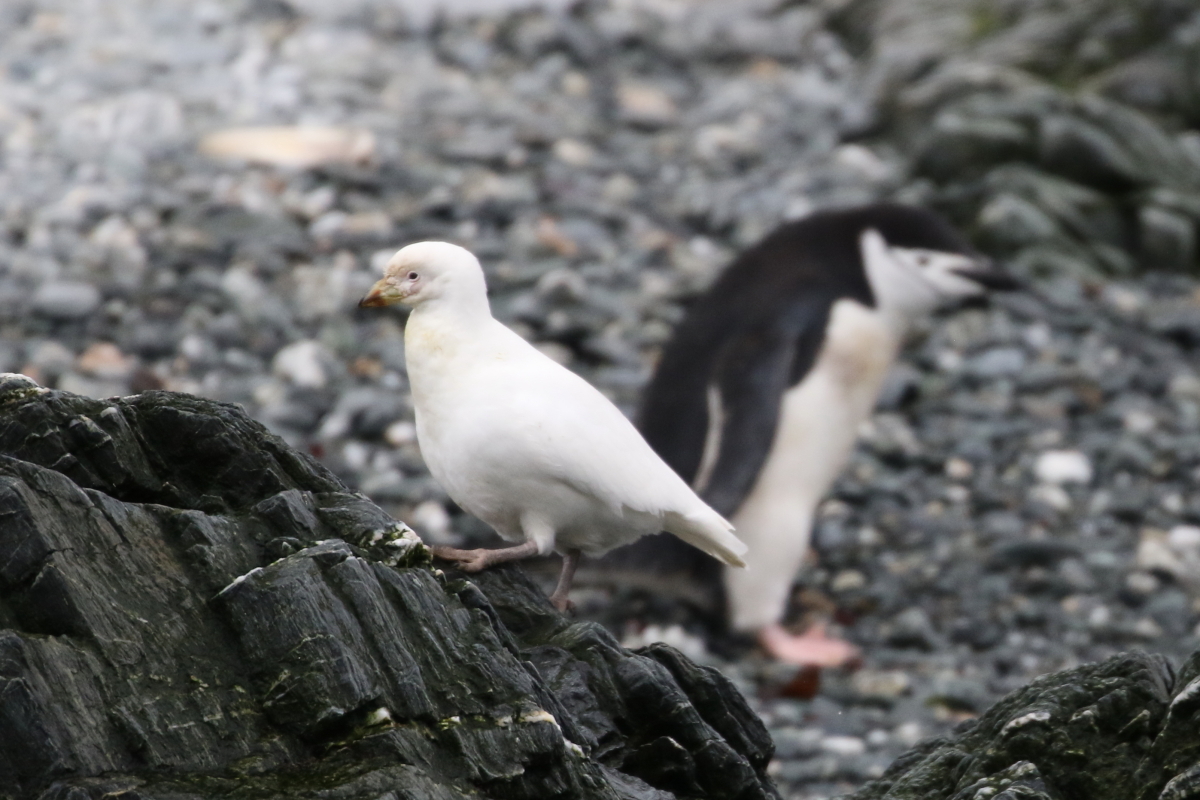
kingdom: Animalia
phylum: Chordata
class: Aves
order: Sphenisciformes
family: Spheniscidae
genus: Pygoscelis
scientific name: Pygoscelis antarcticus
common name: Chinstrap penguin
